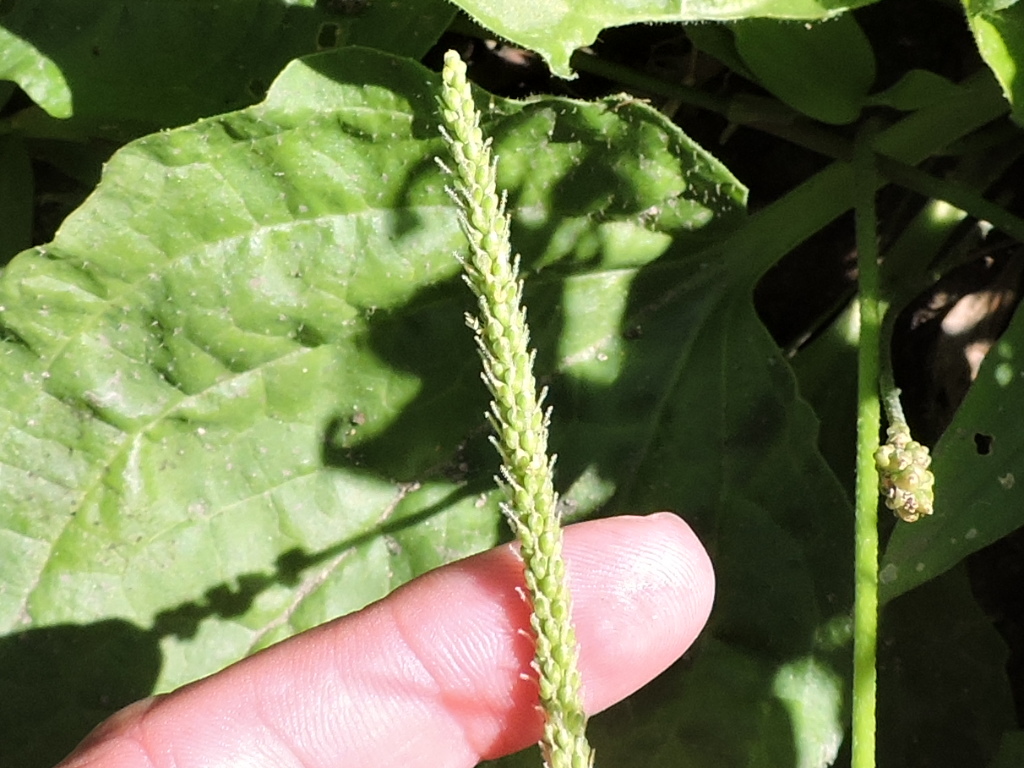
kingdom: Plantae
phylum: Tracheophyta
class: Magnoliopsida
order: Lamiales
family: Plantaginaceae
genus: Plantago
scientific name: Plantago major
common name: Common plantain
